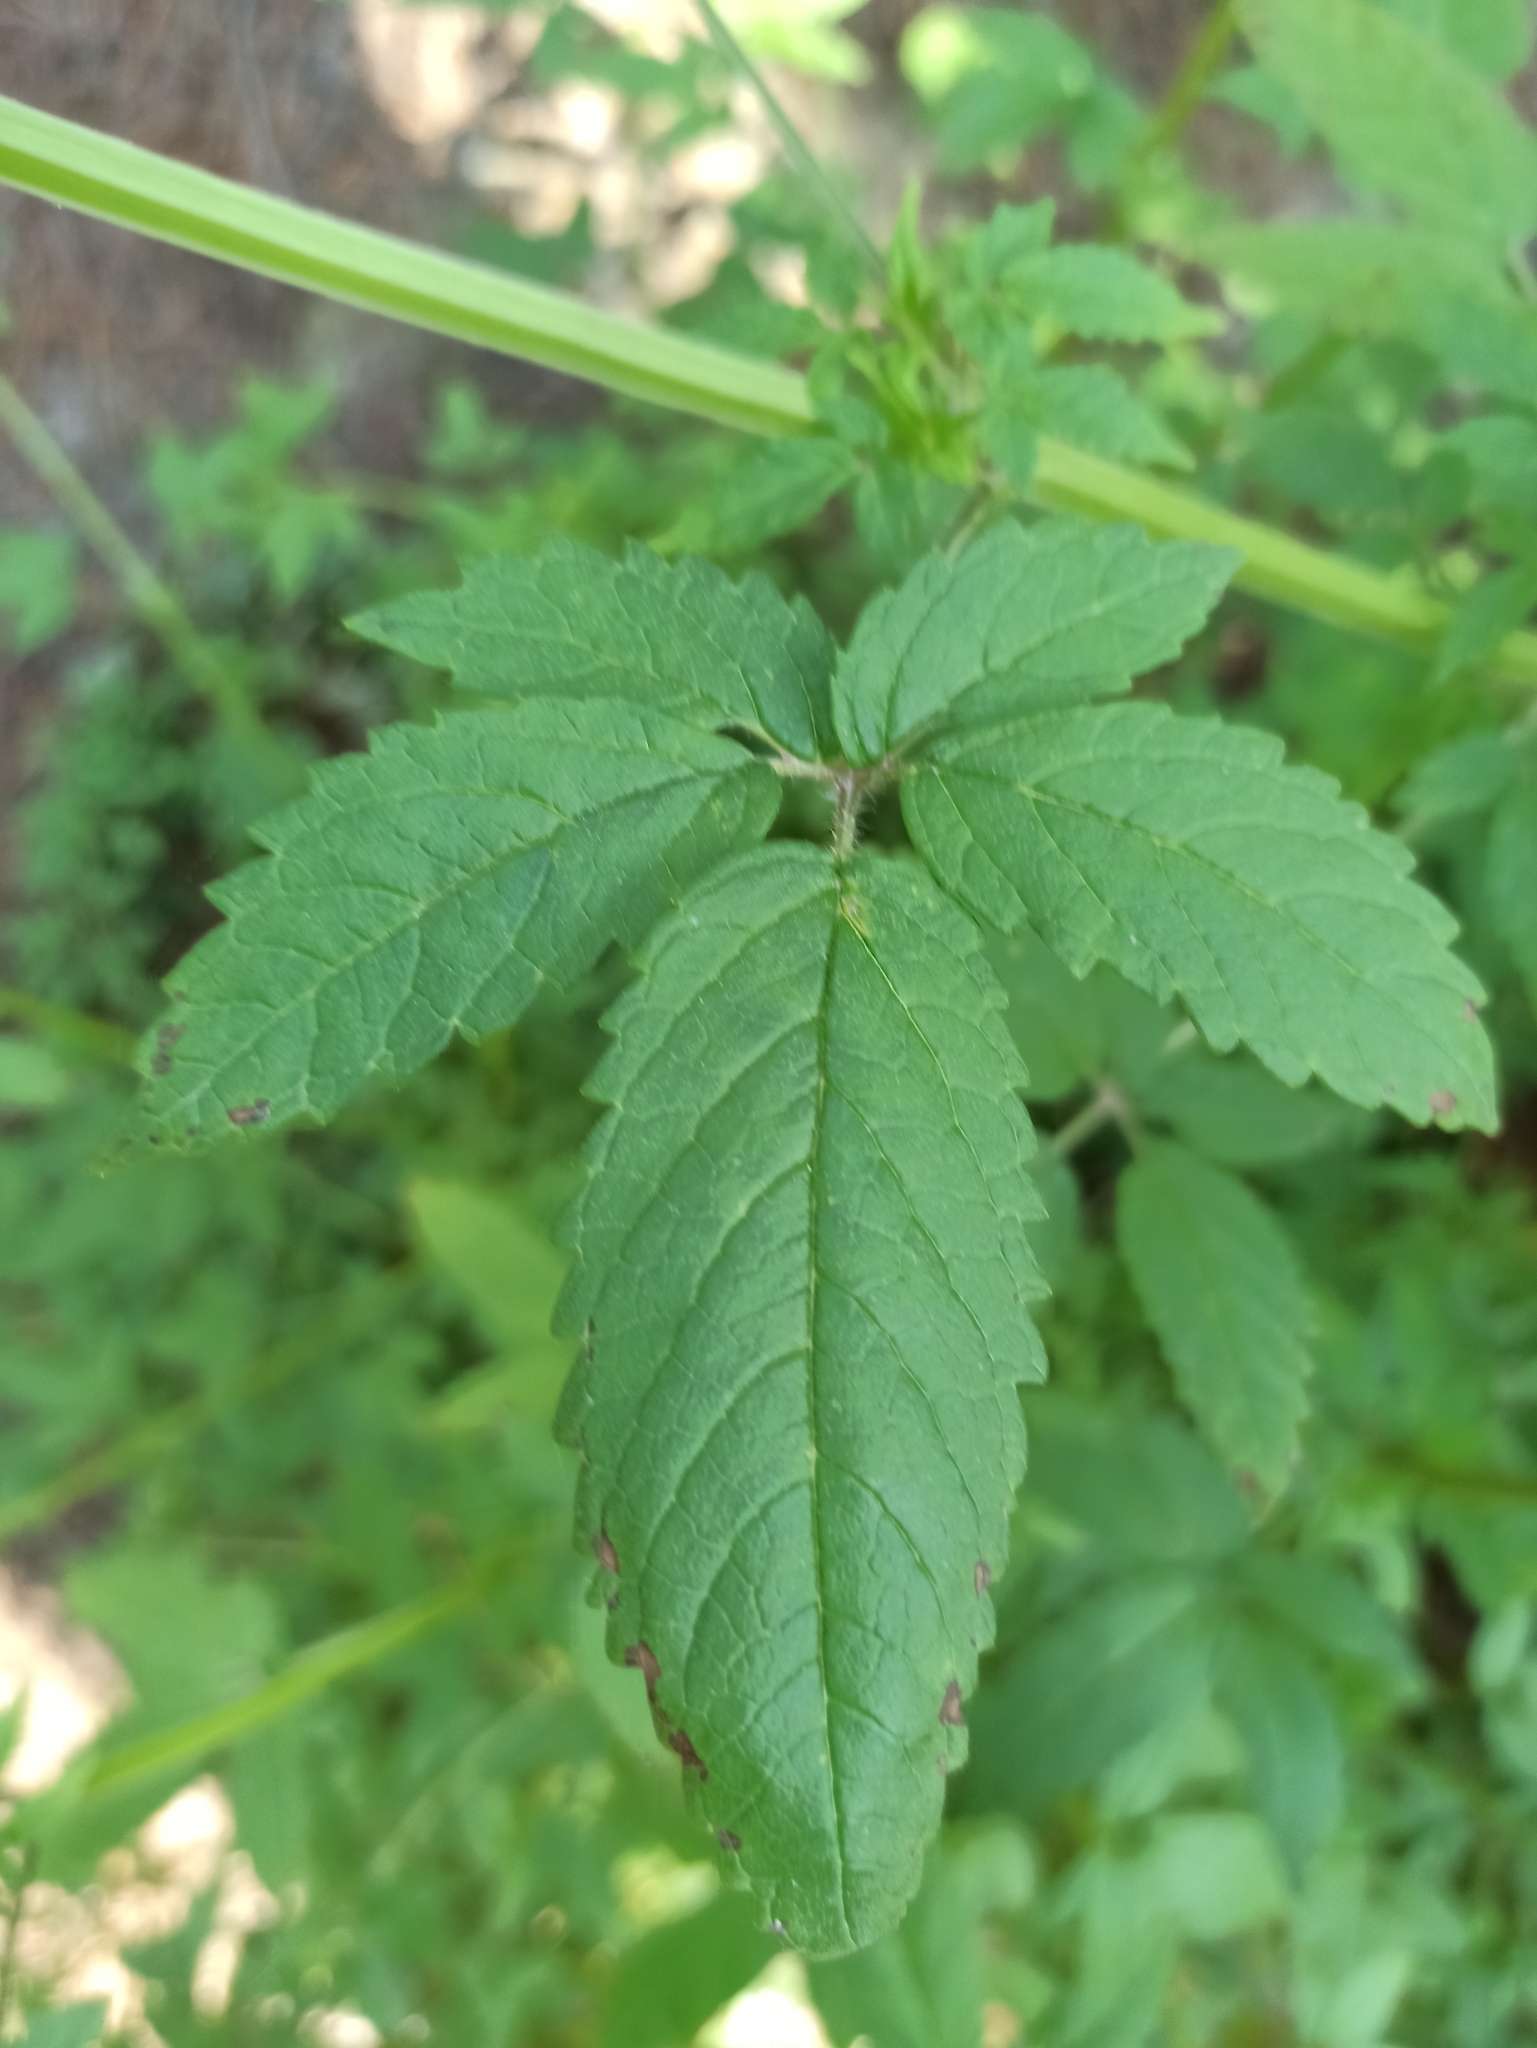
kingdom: Plantae
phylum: Tracheophyta
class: Magnoliopsida
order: Lamiales
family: Lamiaceae
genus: Cedronella
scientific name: Cedronella canariensis
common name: Canary islands balm
